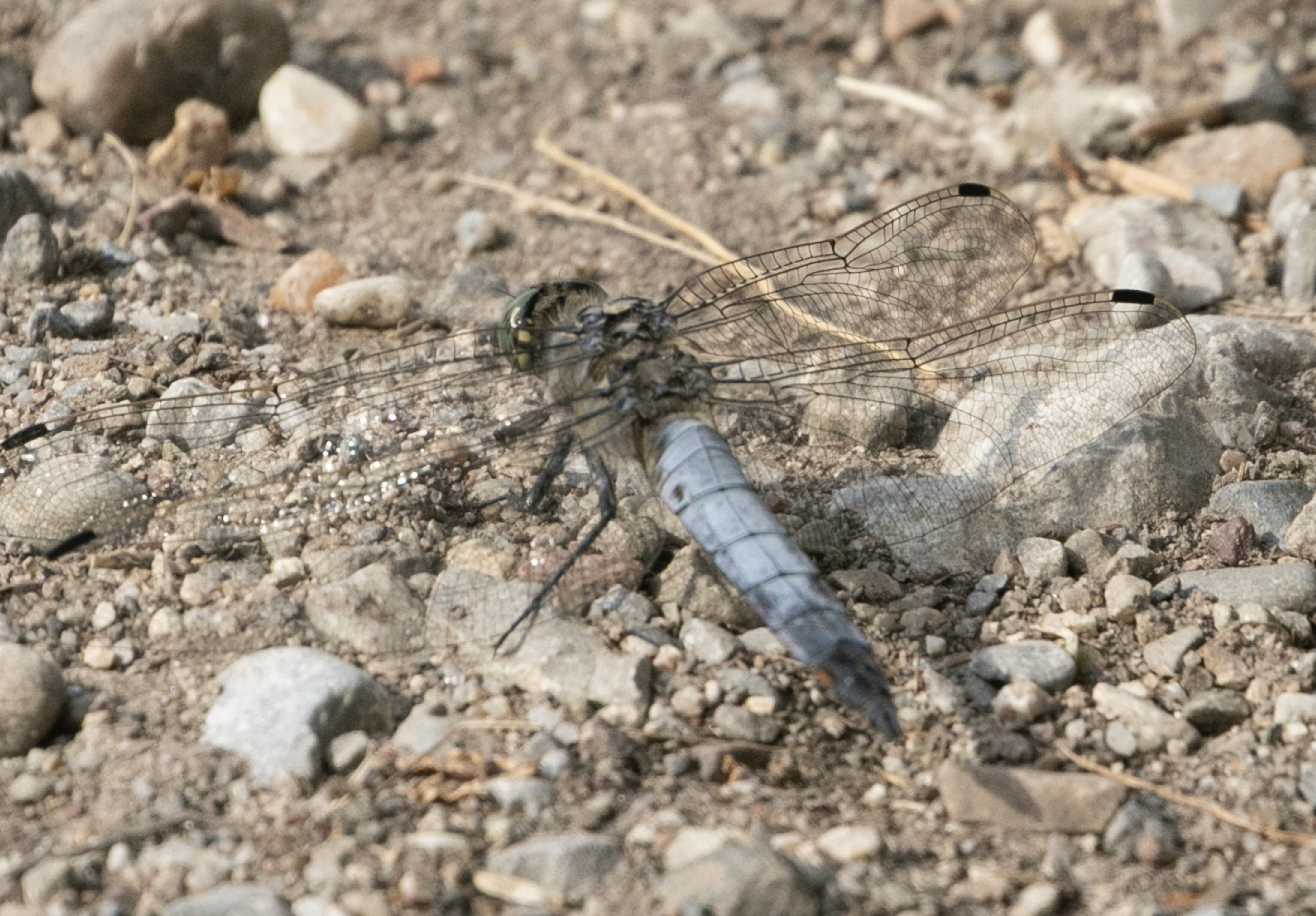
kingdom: Animalia
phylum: Arthropoda
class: Insecta
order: Odonata
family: Libellulidae
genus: Orthetrum
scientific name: Orthetrum cancellatum
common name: Black-tailed skimmer
